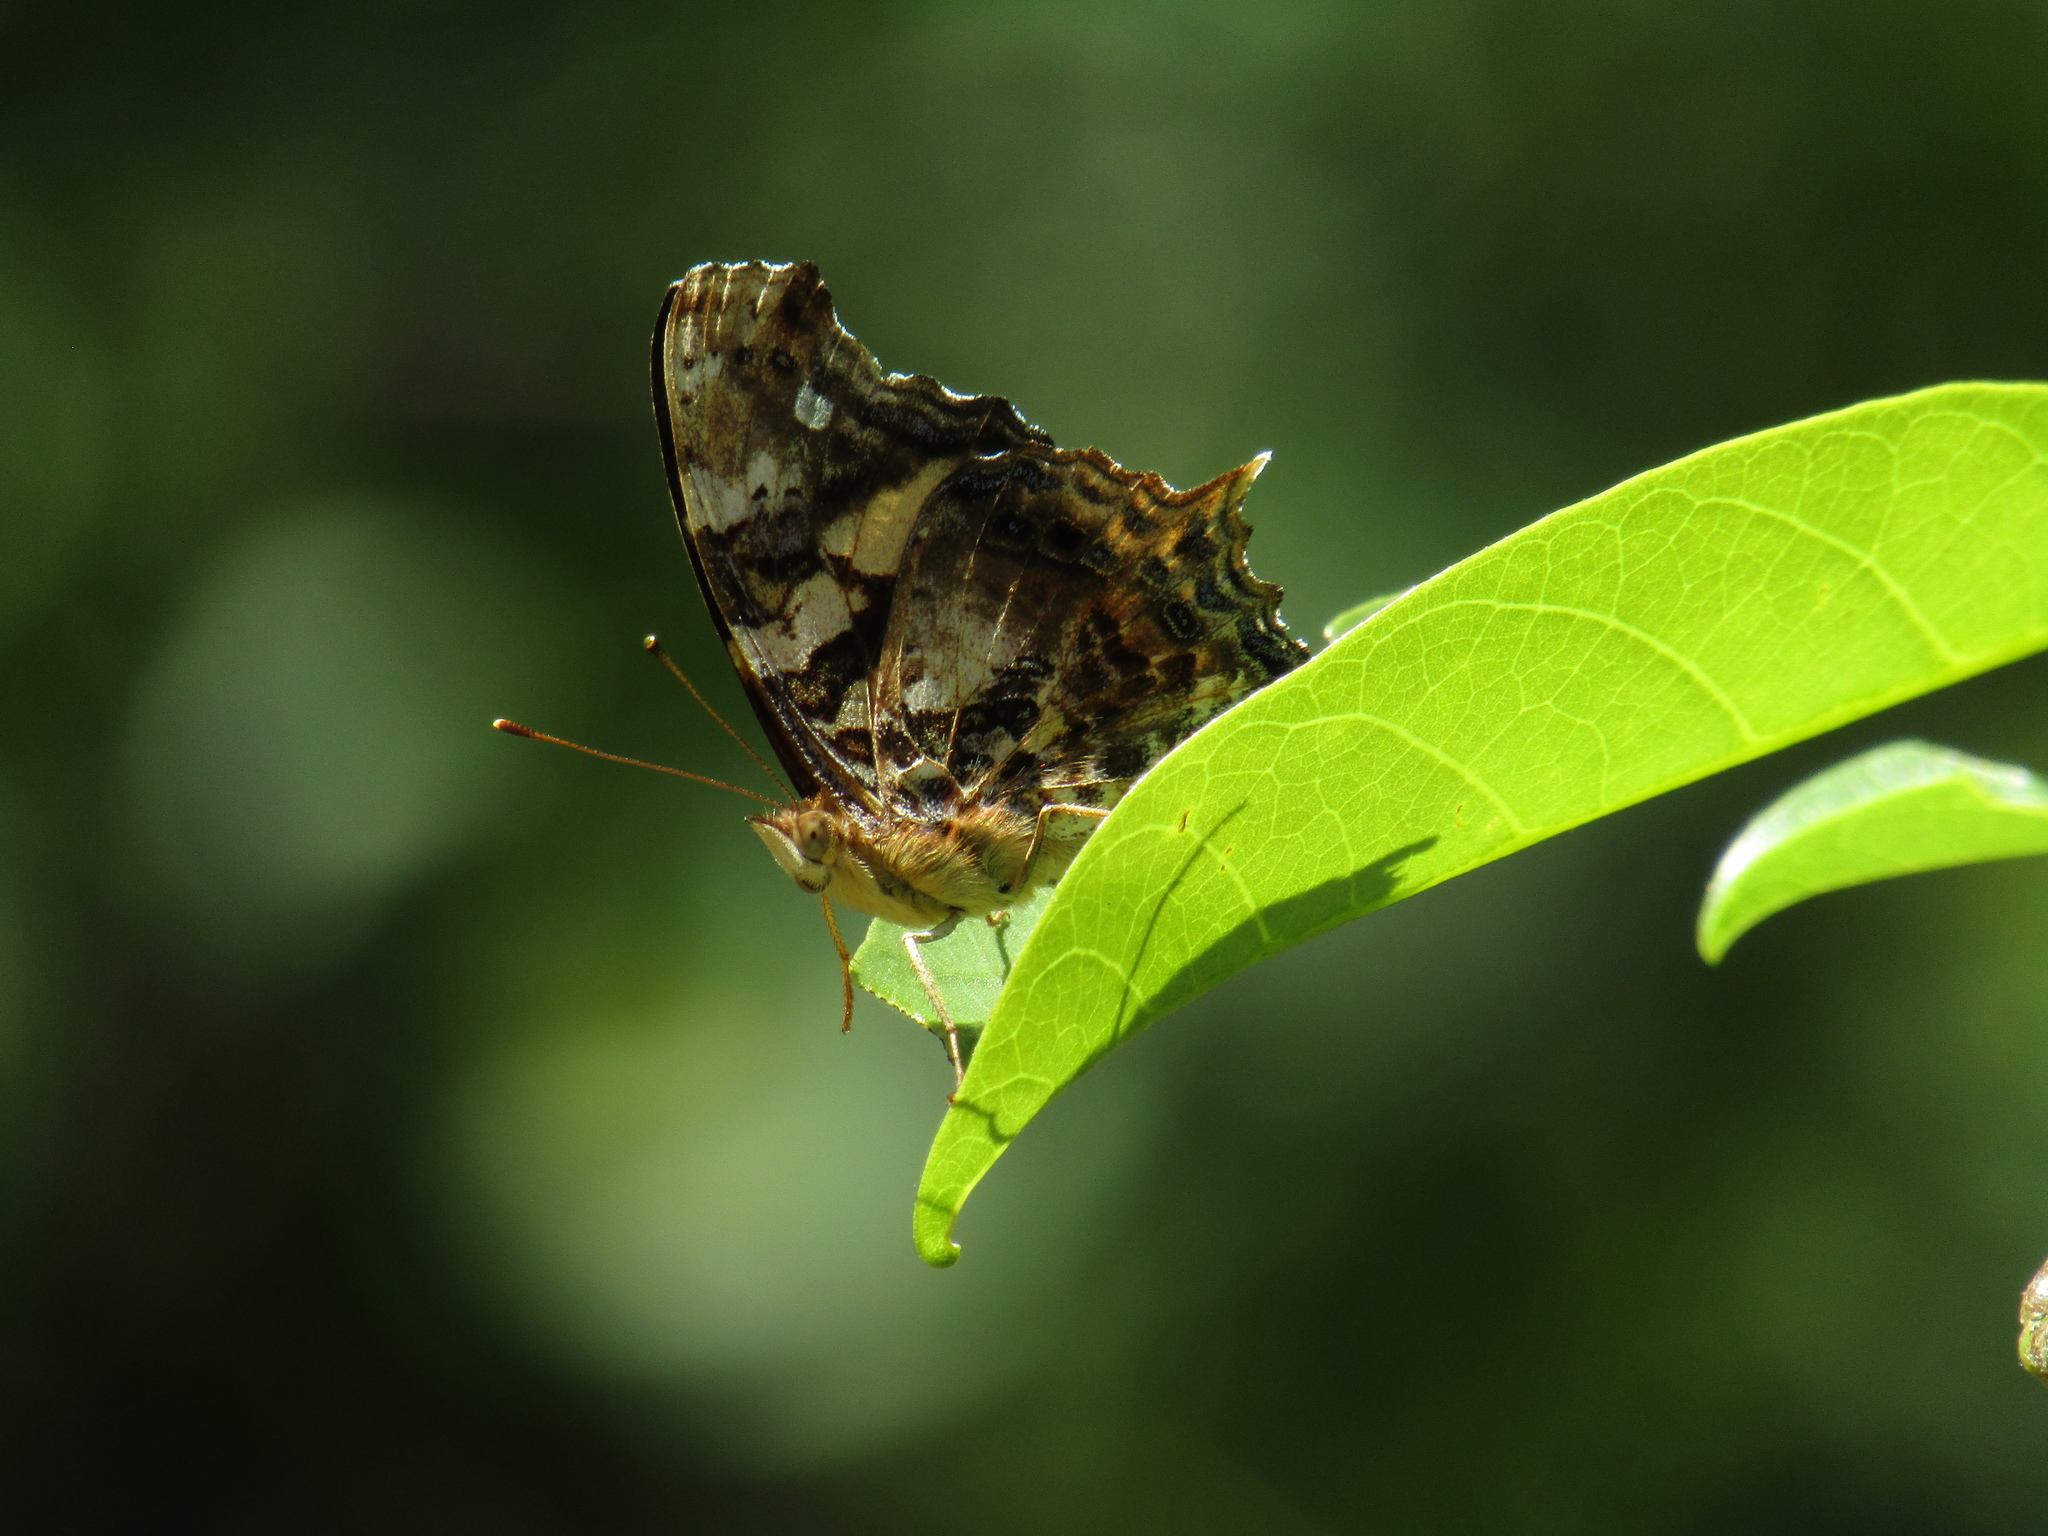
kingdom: Animalia
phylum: Arthropoda
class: Insecta
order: Lepidoptera
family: Nymphalidae
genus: Hypanartia
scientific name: Hypanartia bella
